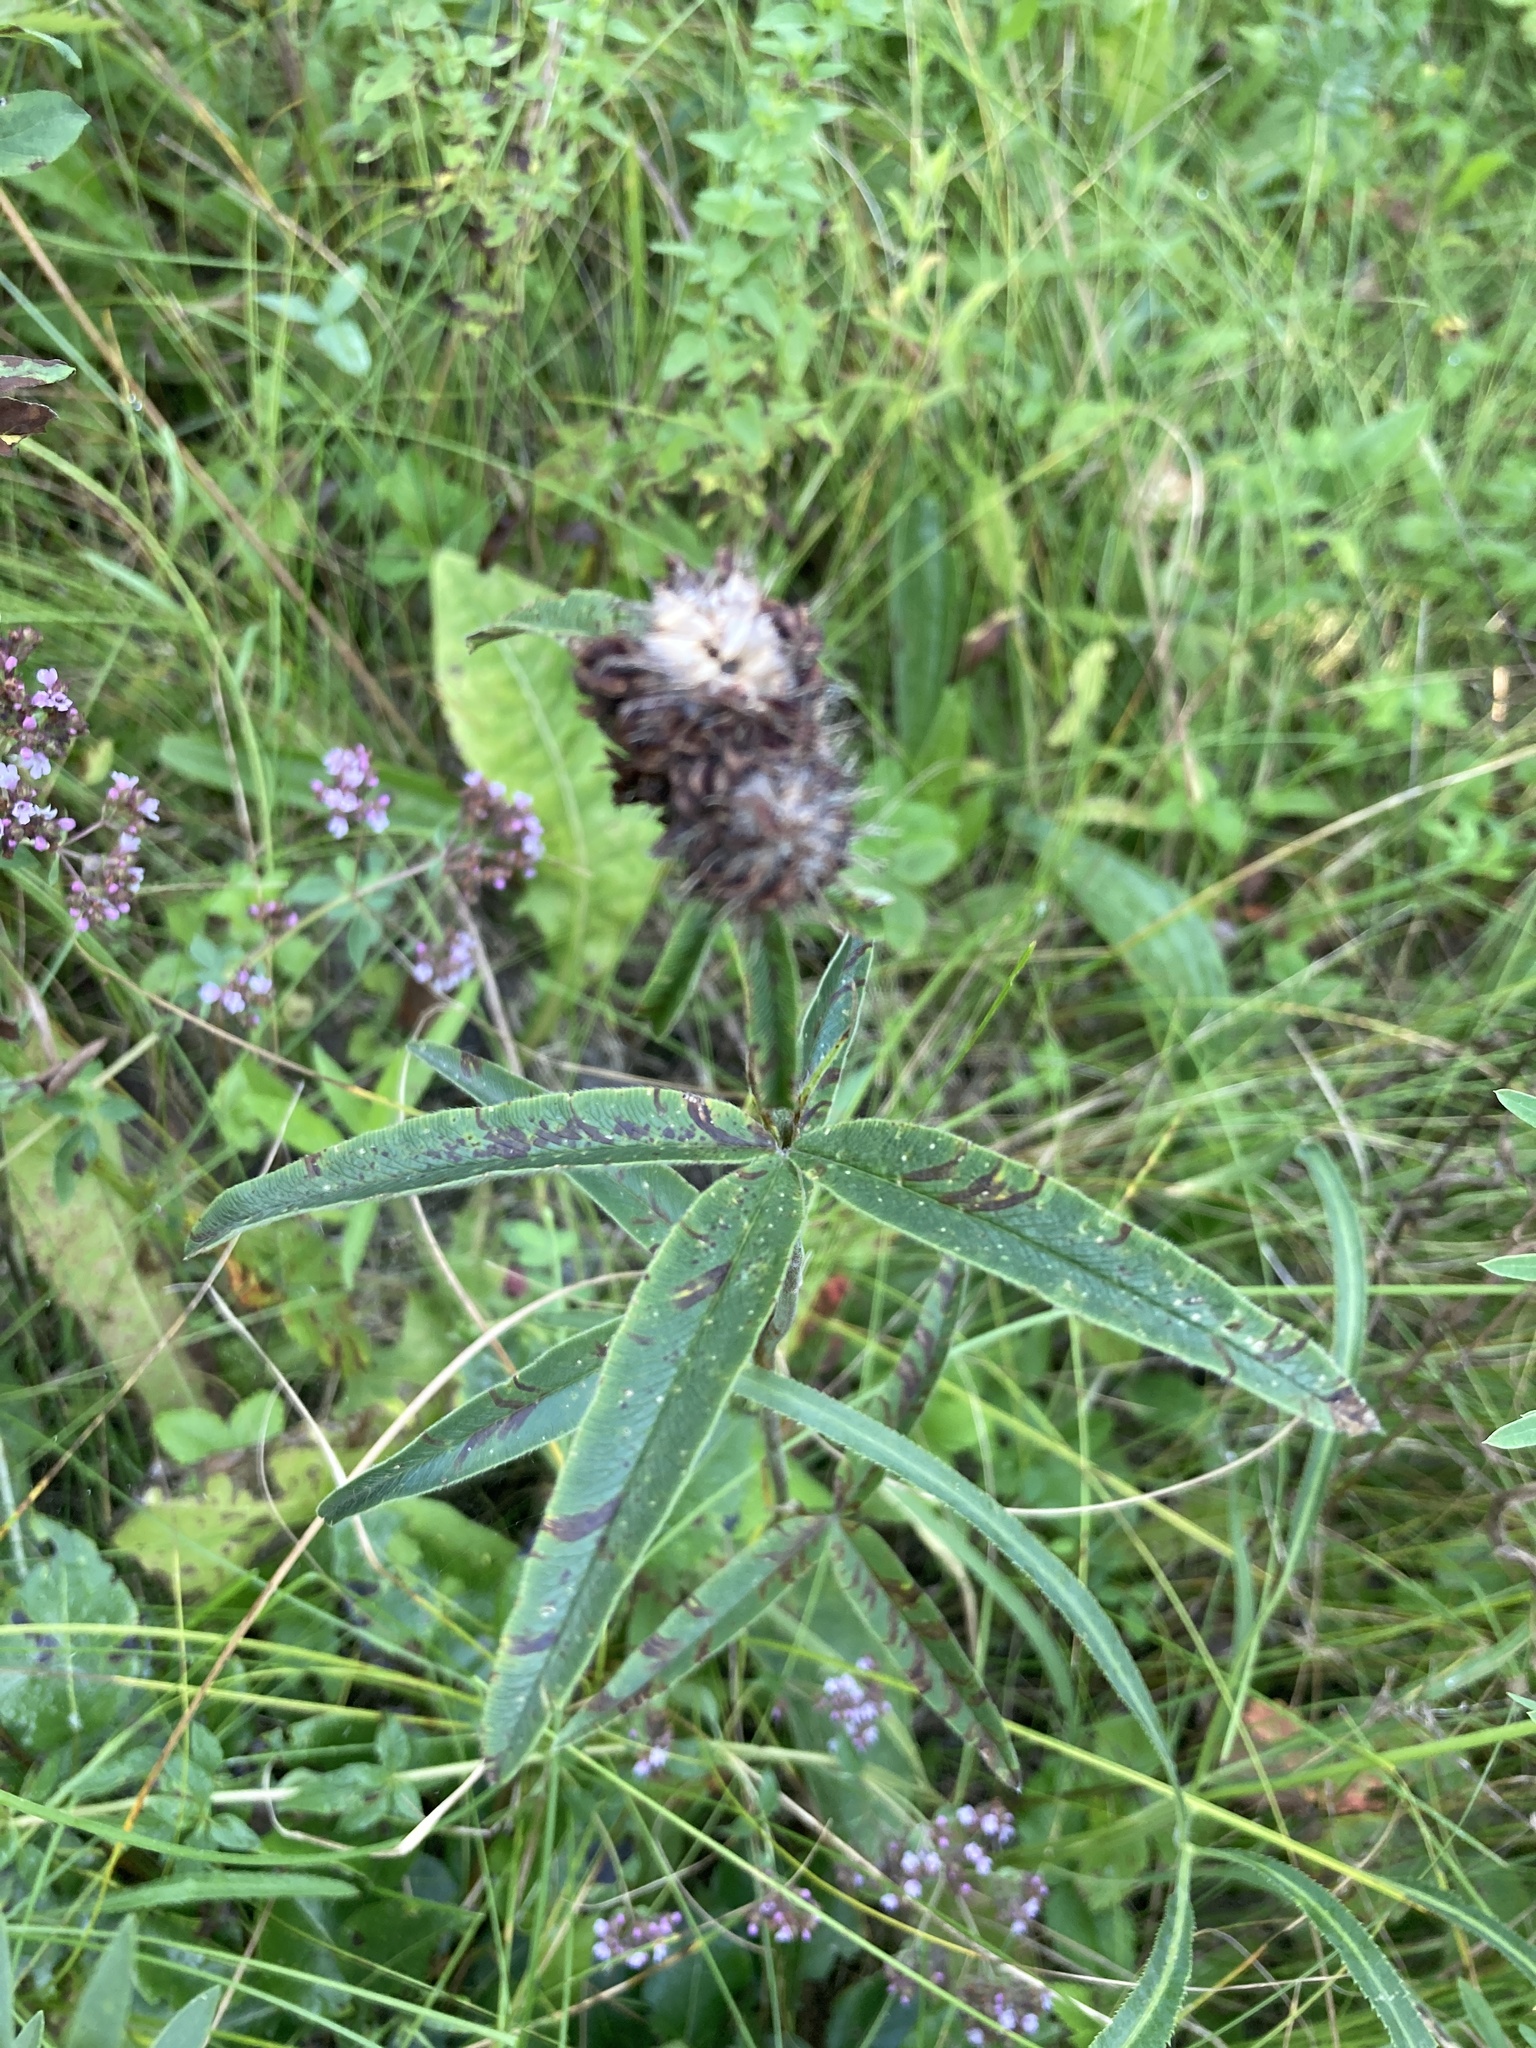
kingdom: Plantae
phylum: Tracheophyta
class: Magnoliopsida
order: Fabales
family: Fabaceae
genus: Trifolium
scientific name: Trifolium alpestre
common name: Owl-head clover
